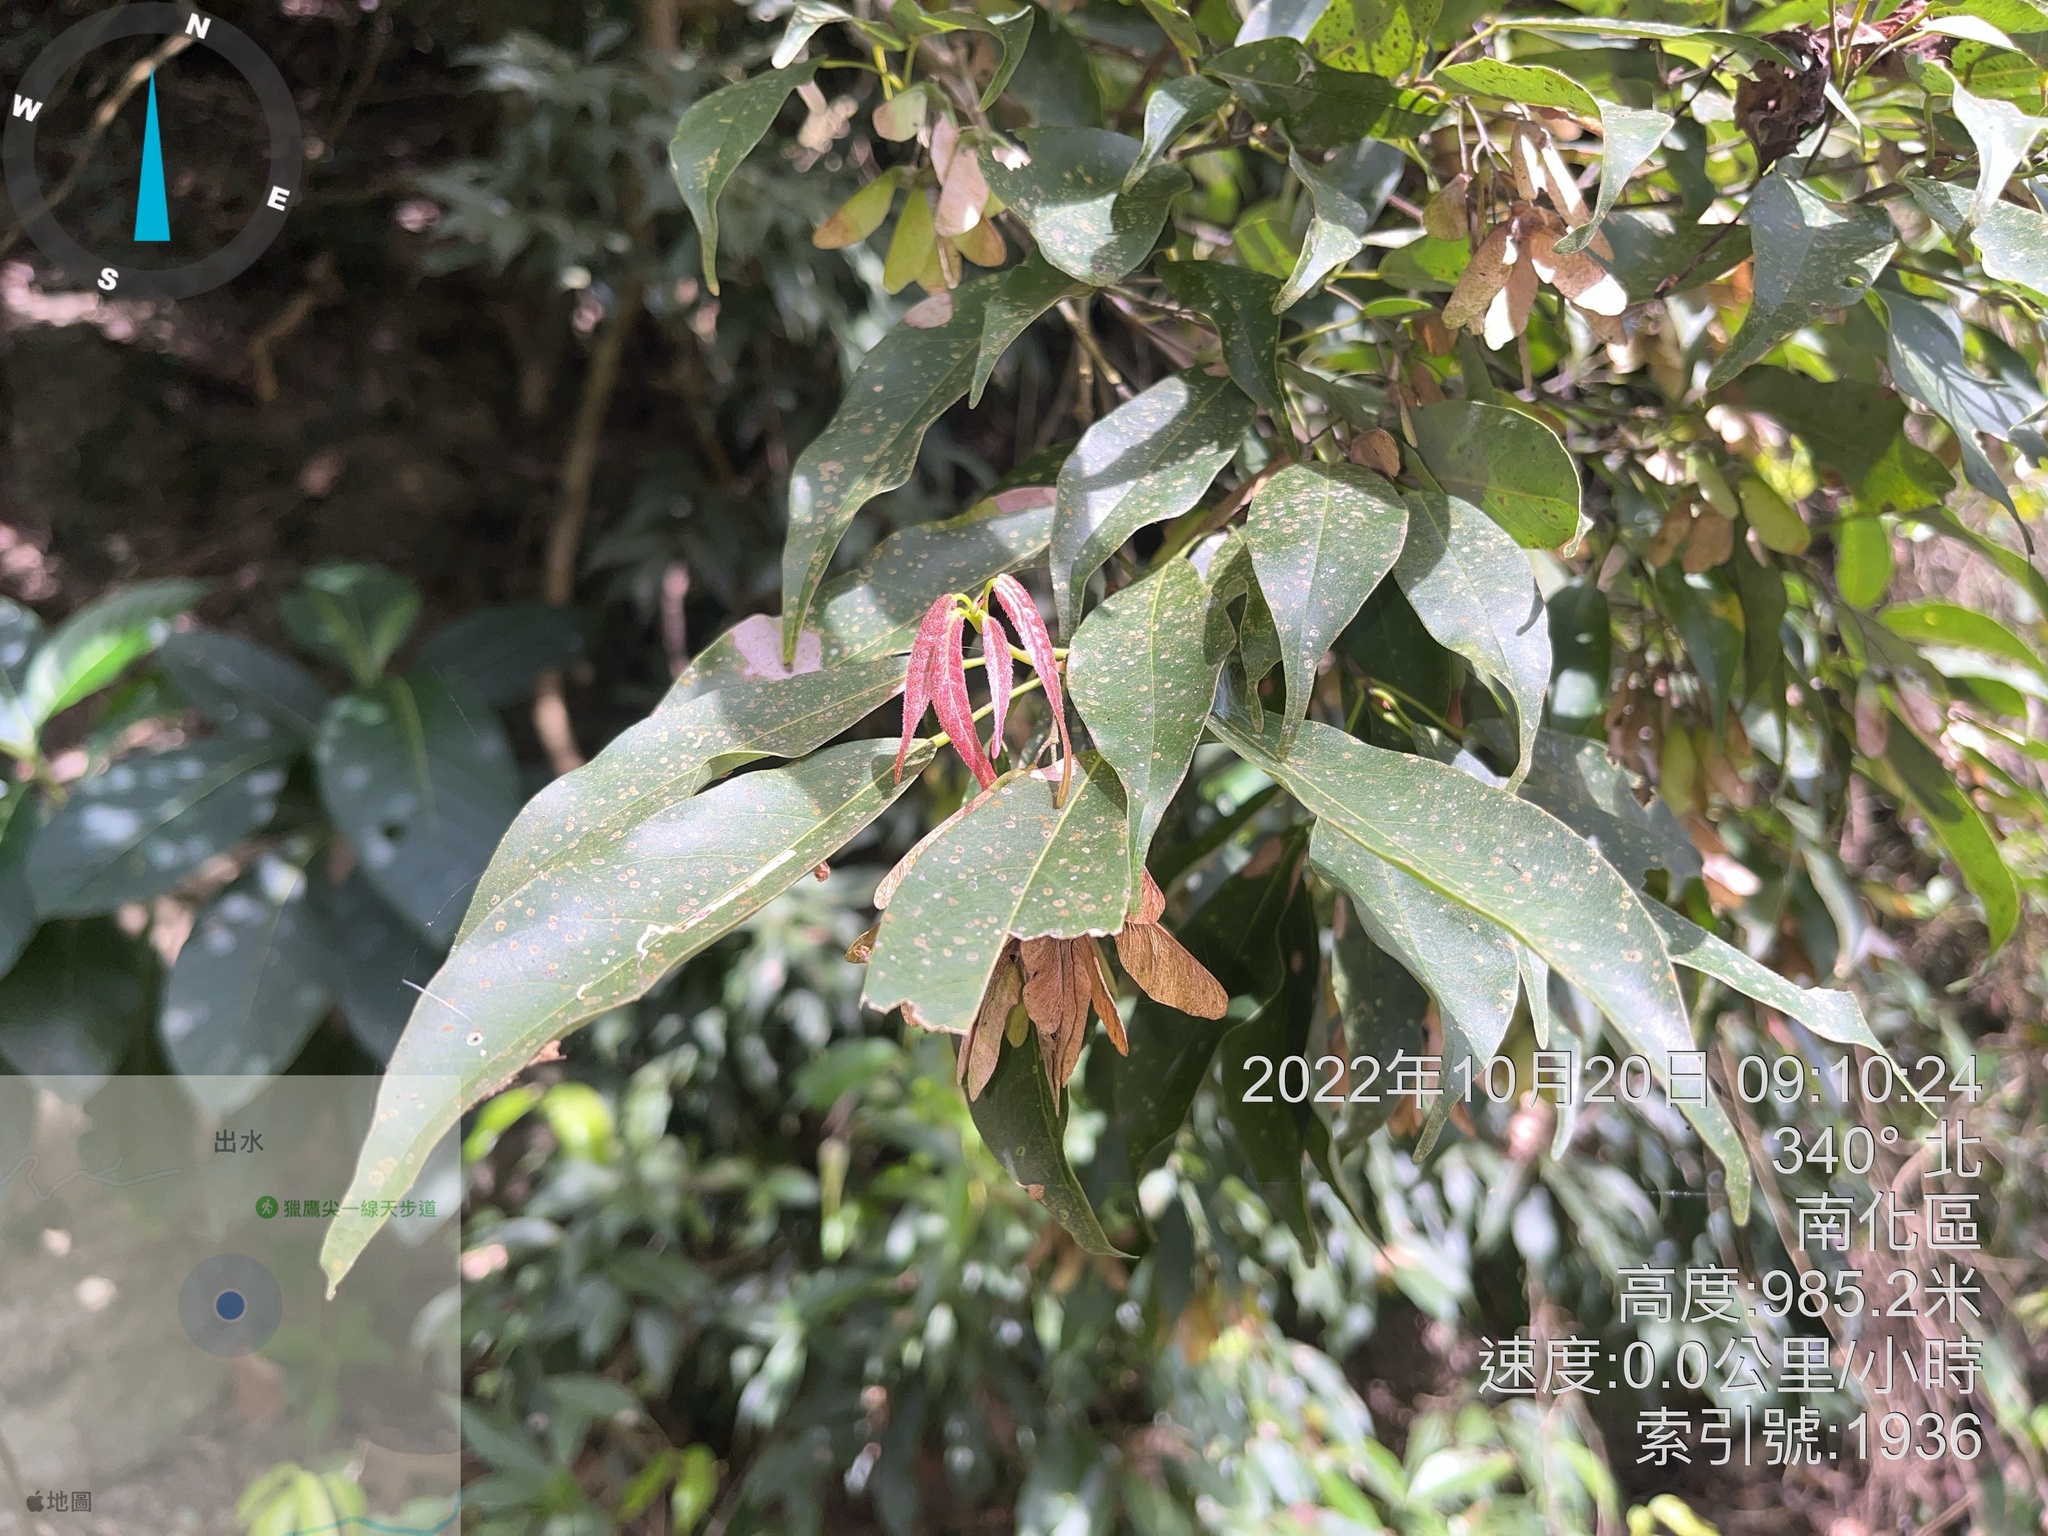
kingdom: Plantae
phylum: Tracheophyta
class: Magnoliopsida
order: Sapindales
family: Sapindaceae
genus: Acer
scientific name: Acer oblongum
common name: Himalayan maple
